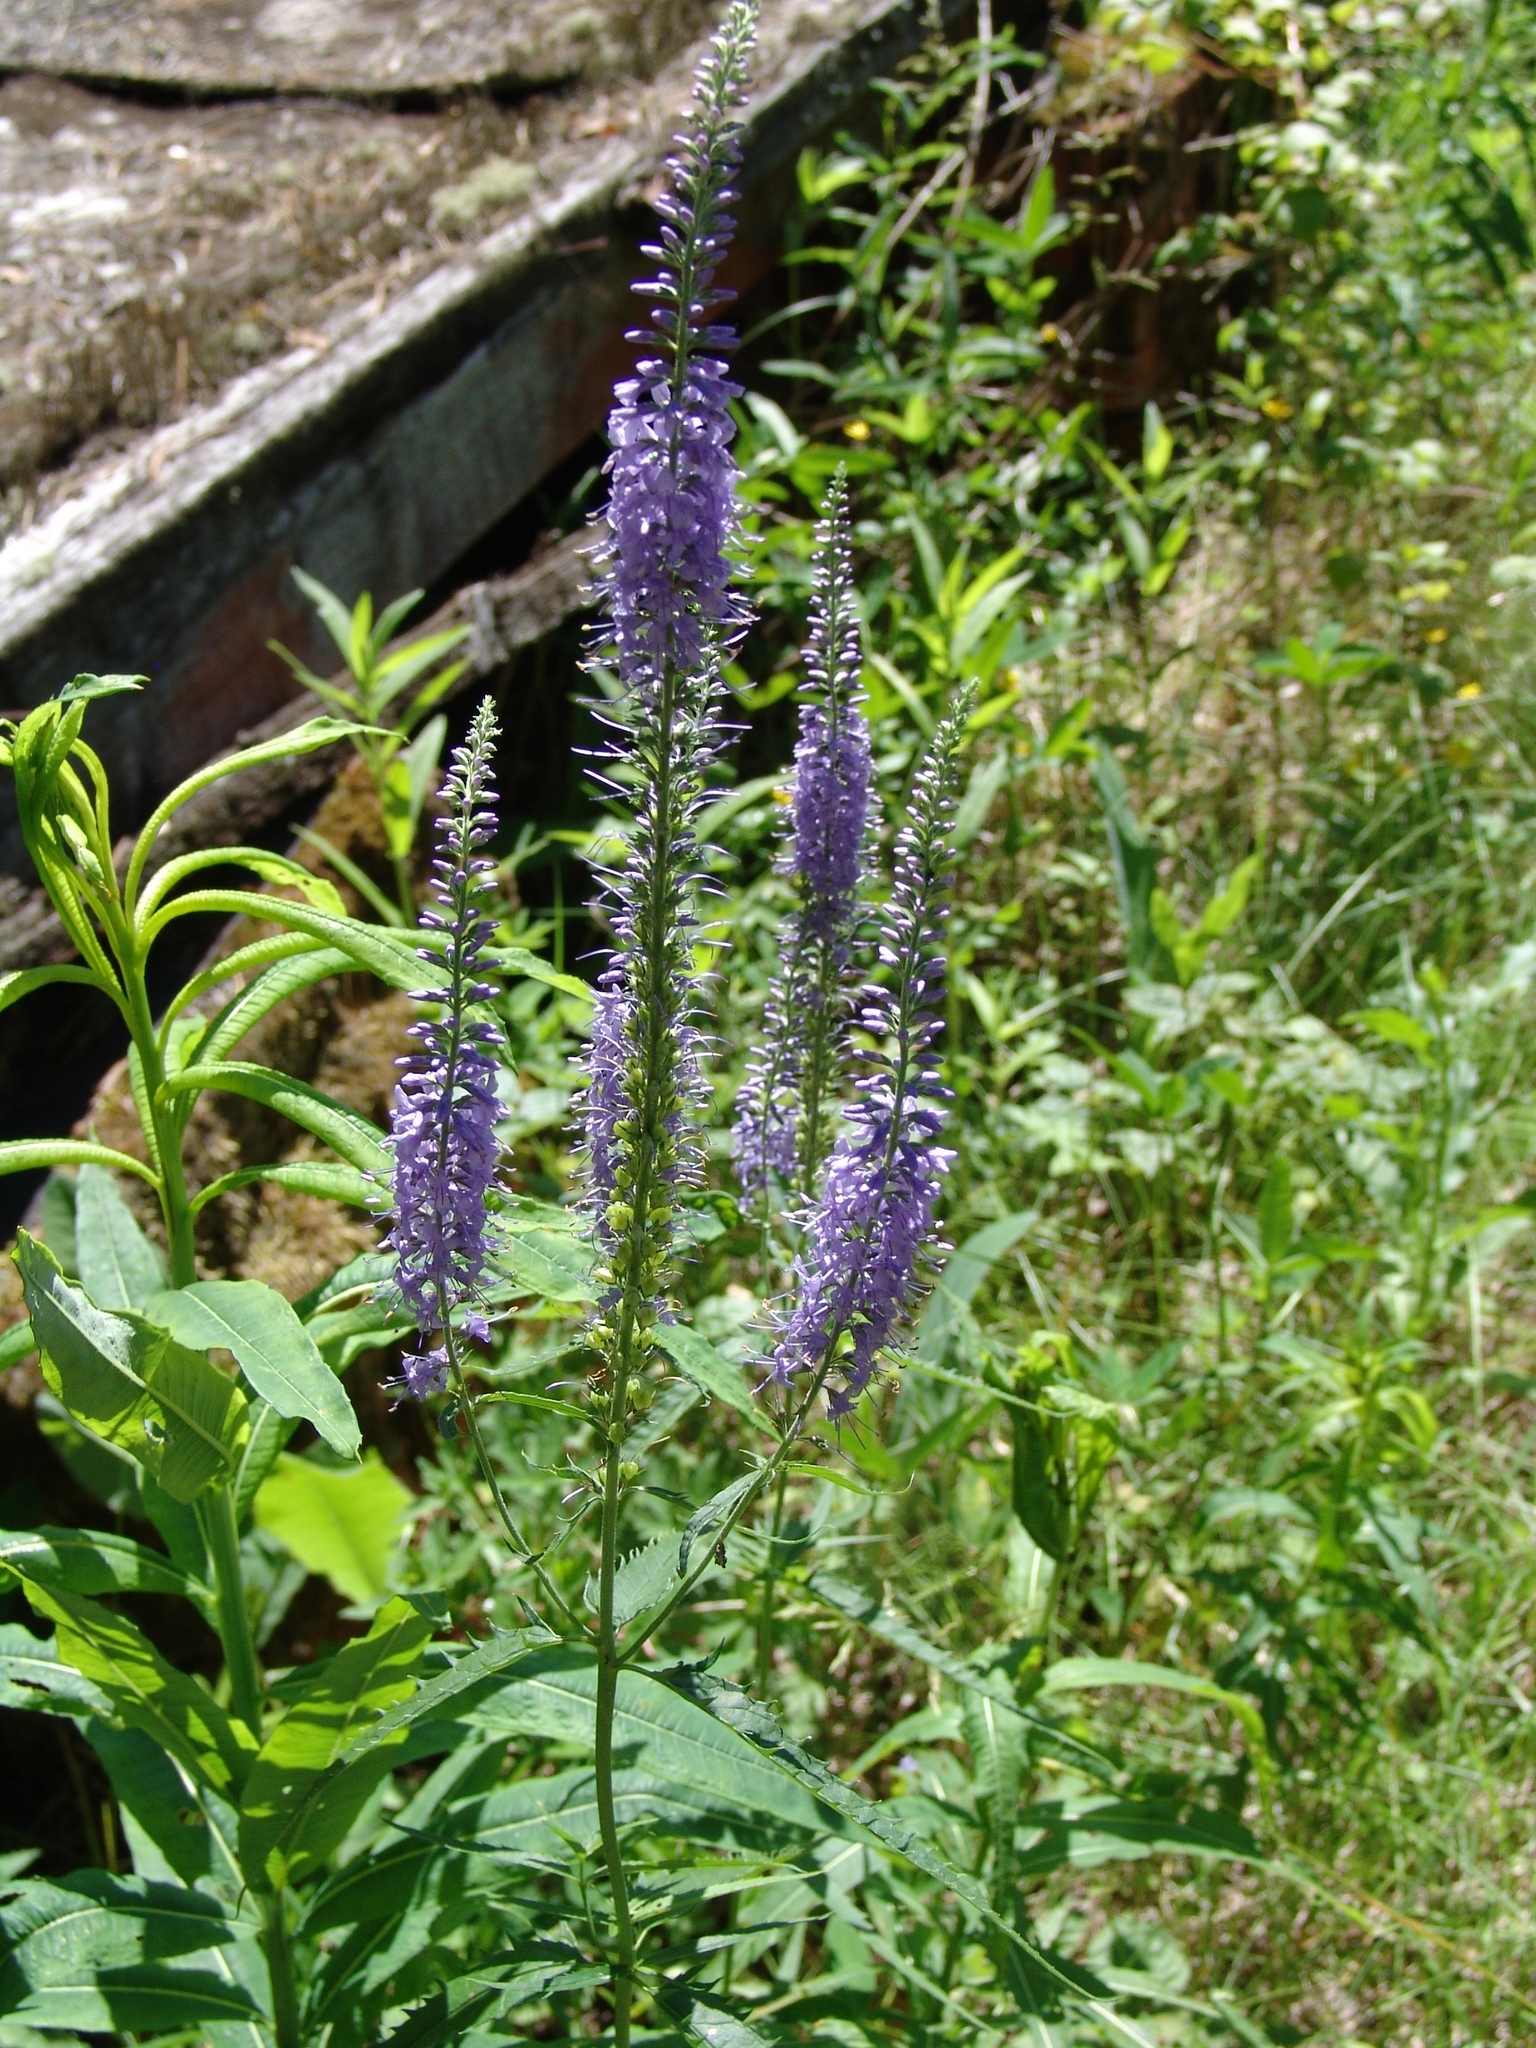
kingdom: Plantae
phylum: Tracheophyta
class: Magnoliopsida
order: Lamiales
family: Plantaginaceae
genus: Veronica
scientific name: Veronica longifolia
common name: Garden speedwell
